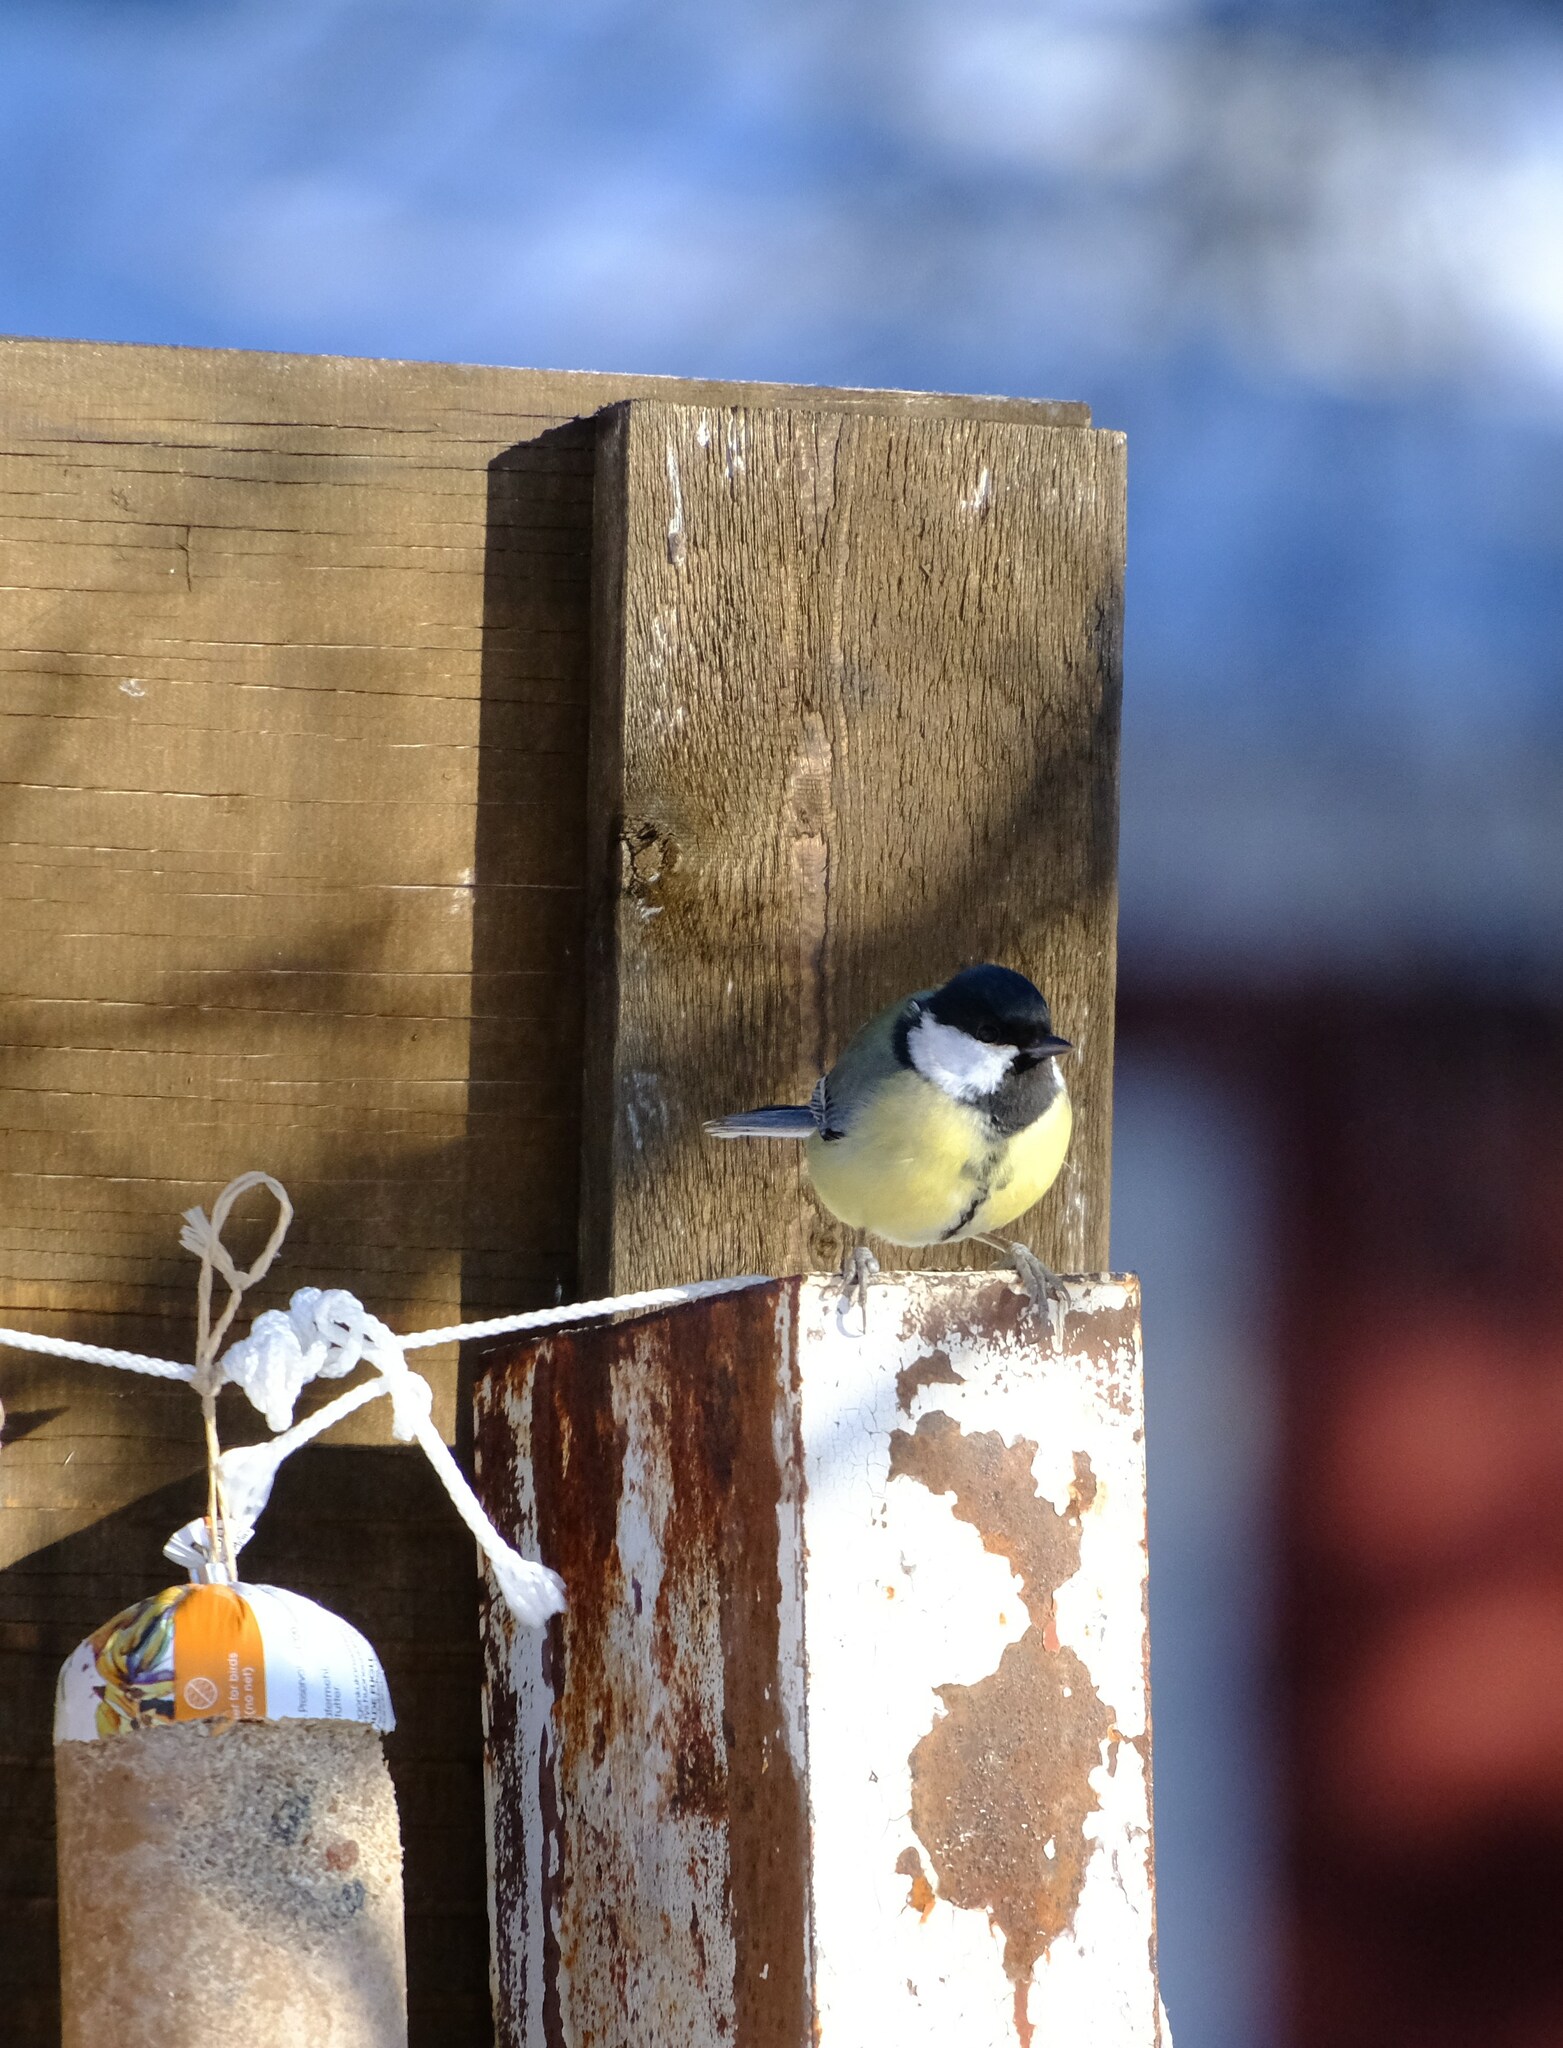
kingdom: Animalia
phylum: Chordata
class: Aves
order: Passeriformes
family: Paridae
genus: Parus
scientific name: Parus major
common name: Great tit
